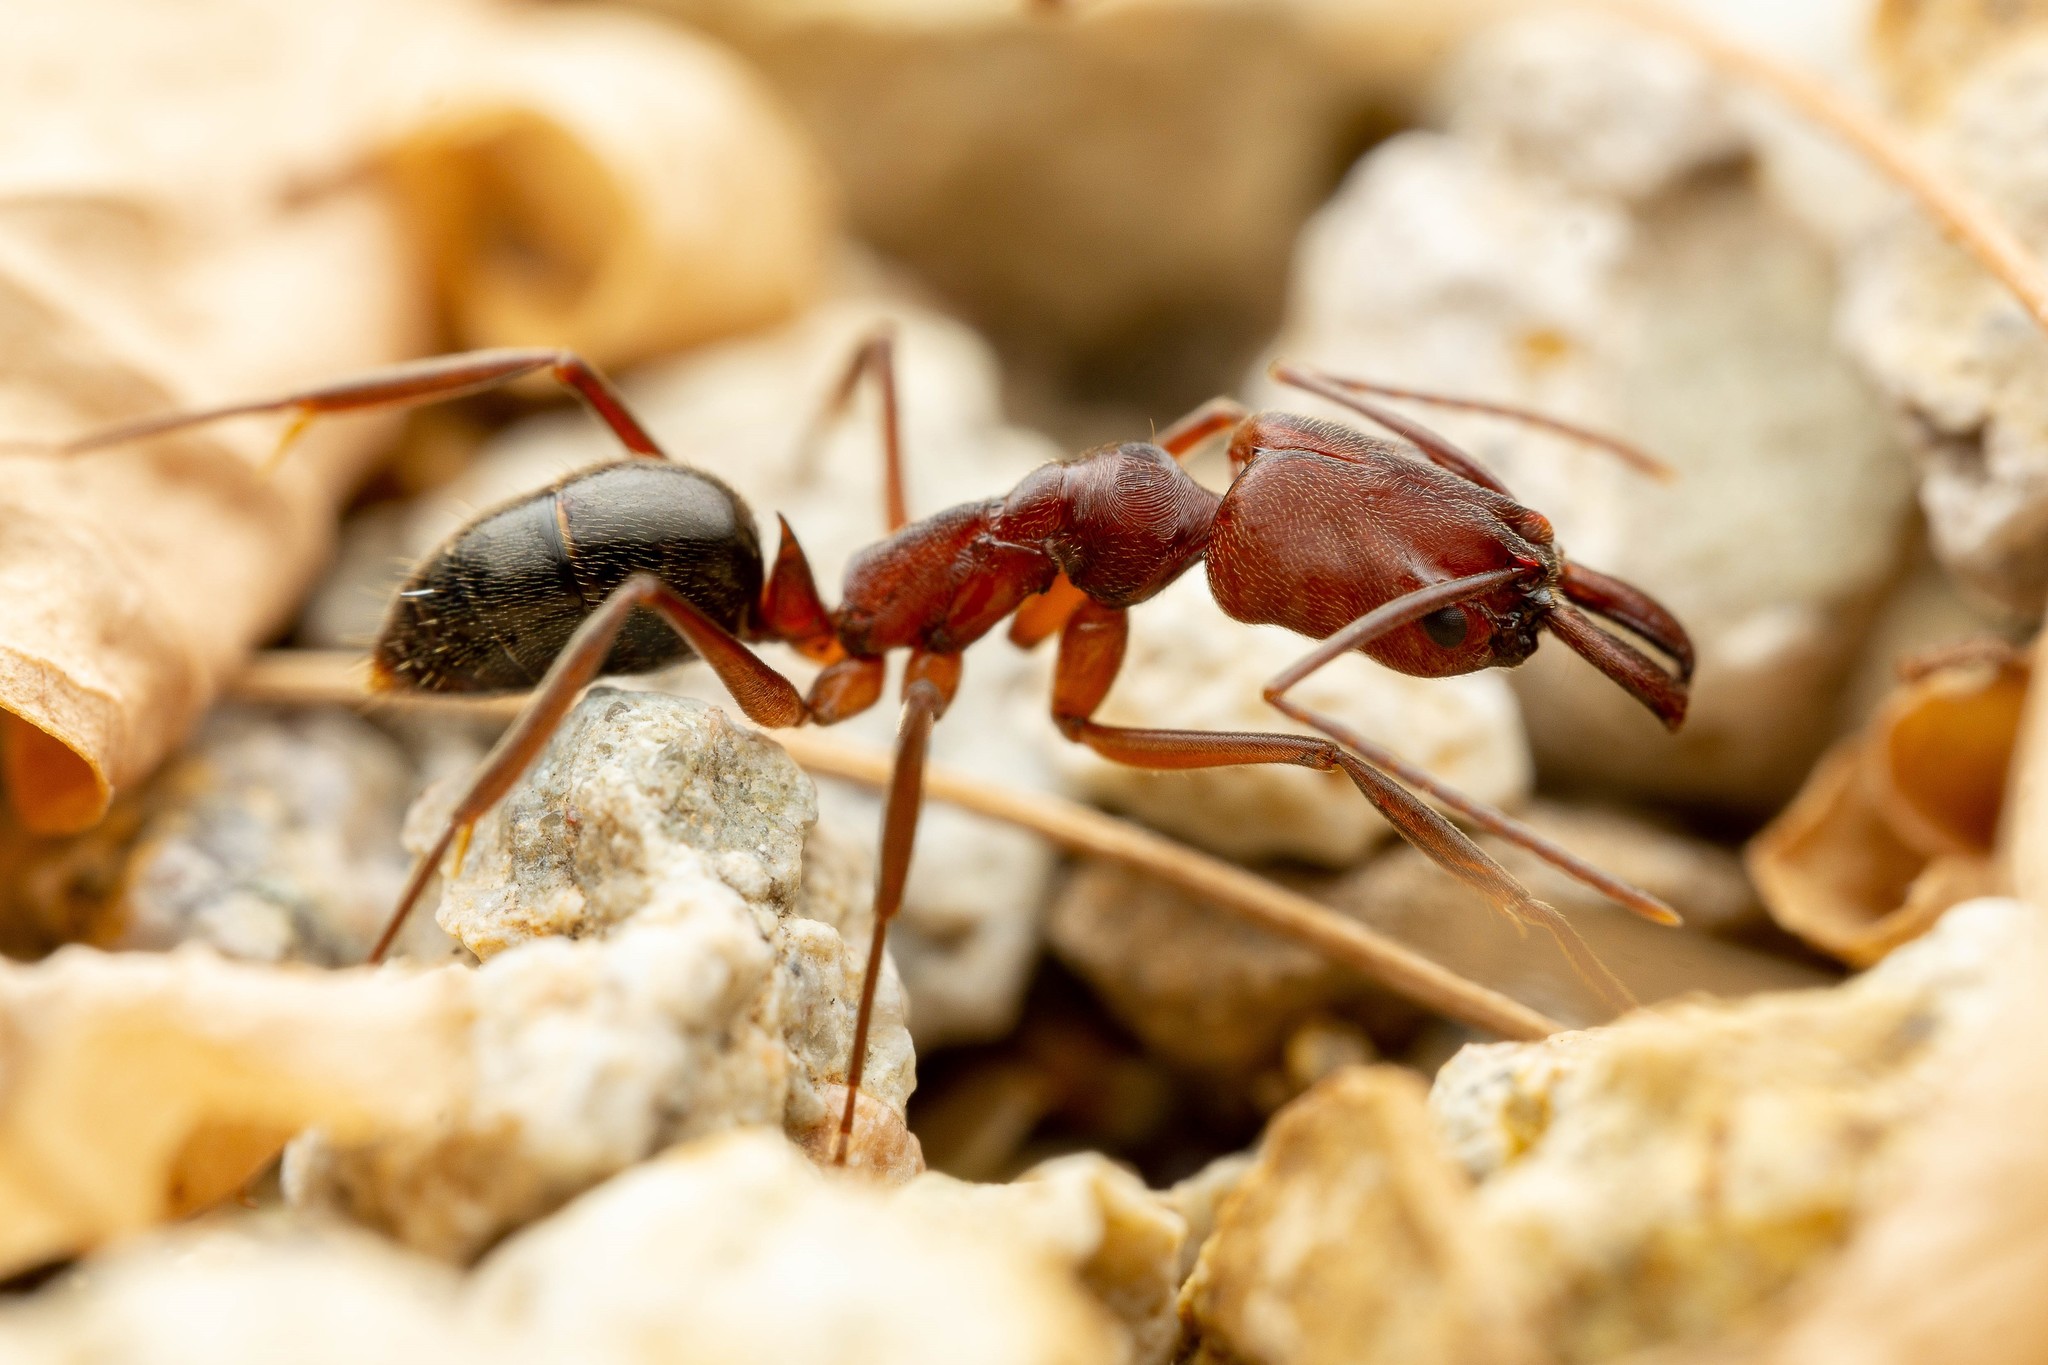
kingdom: Animalia
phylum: Arthropoda
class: Insecta
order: Hymenoptera
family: Formicidae
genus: Odontomachus
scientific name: Odontomachus
